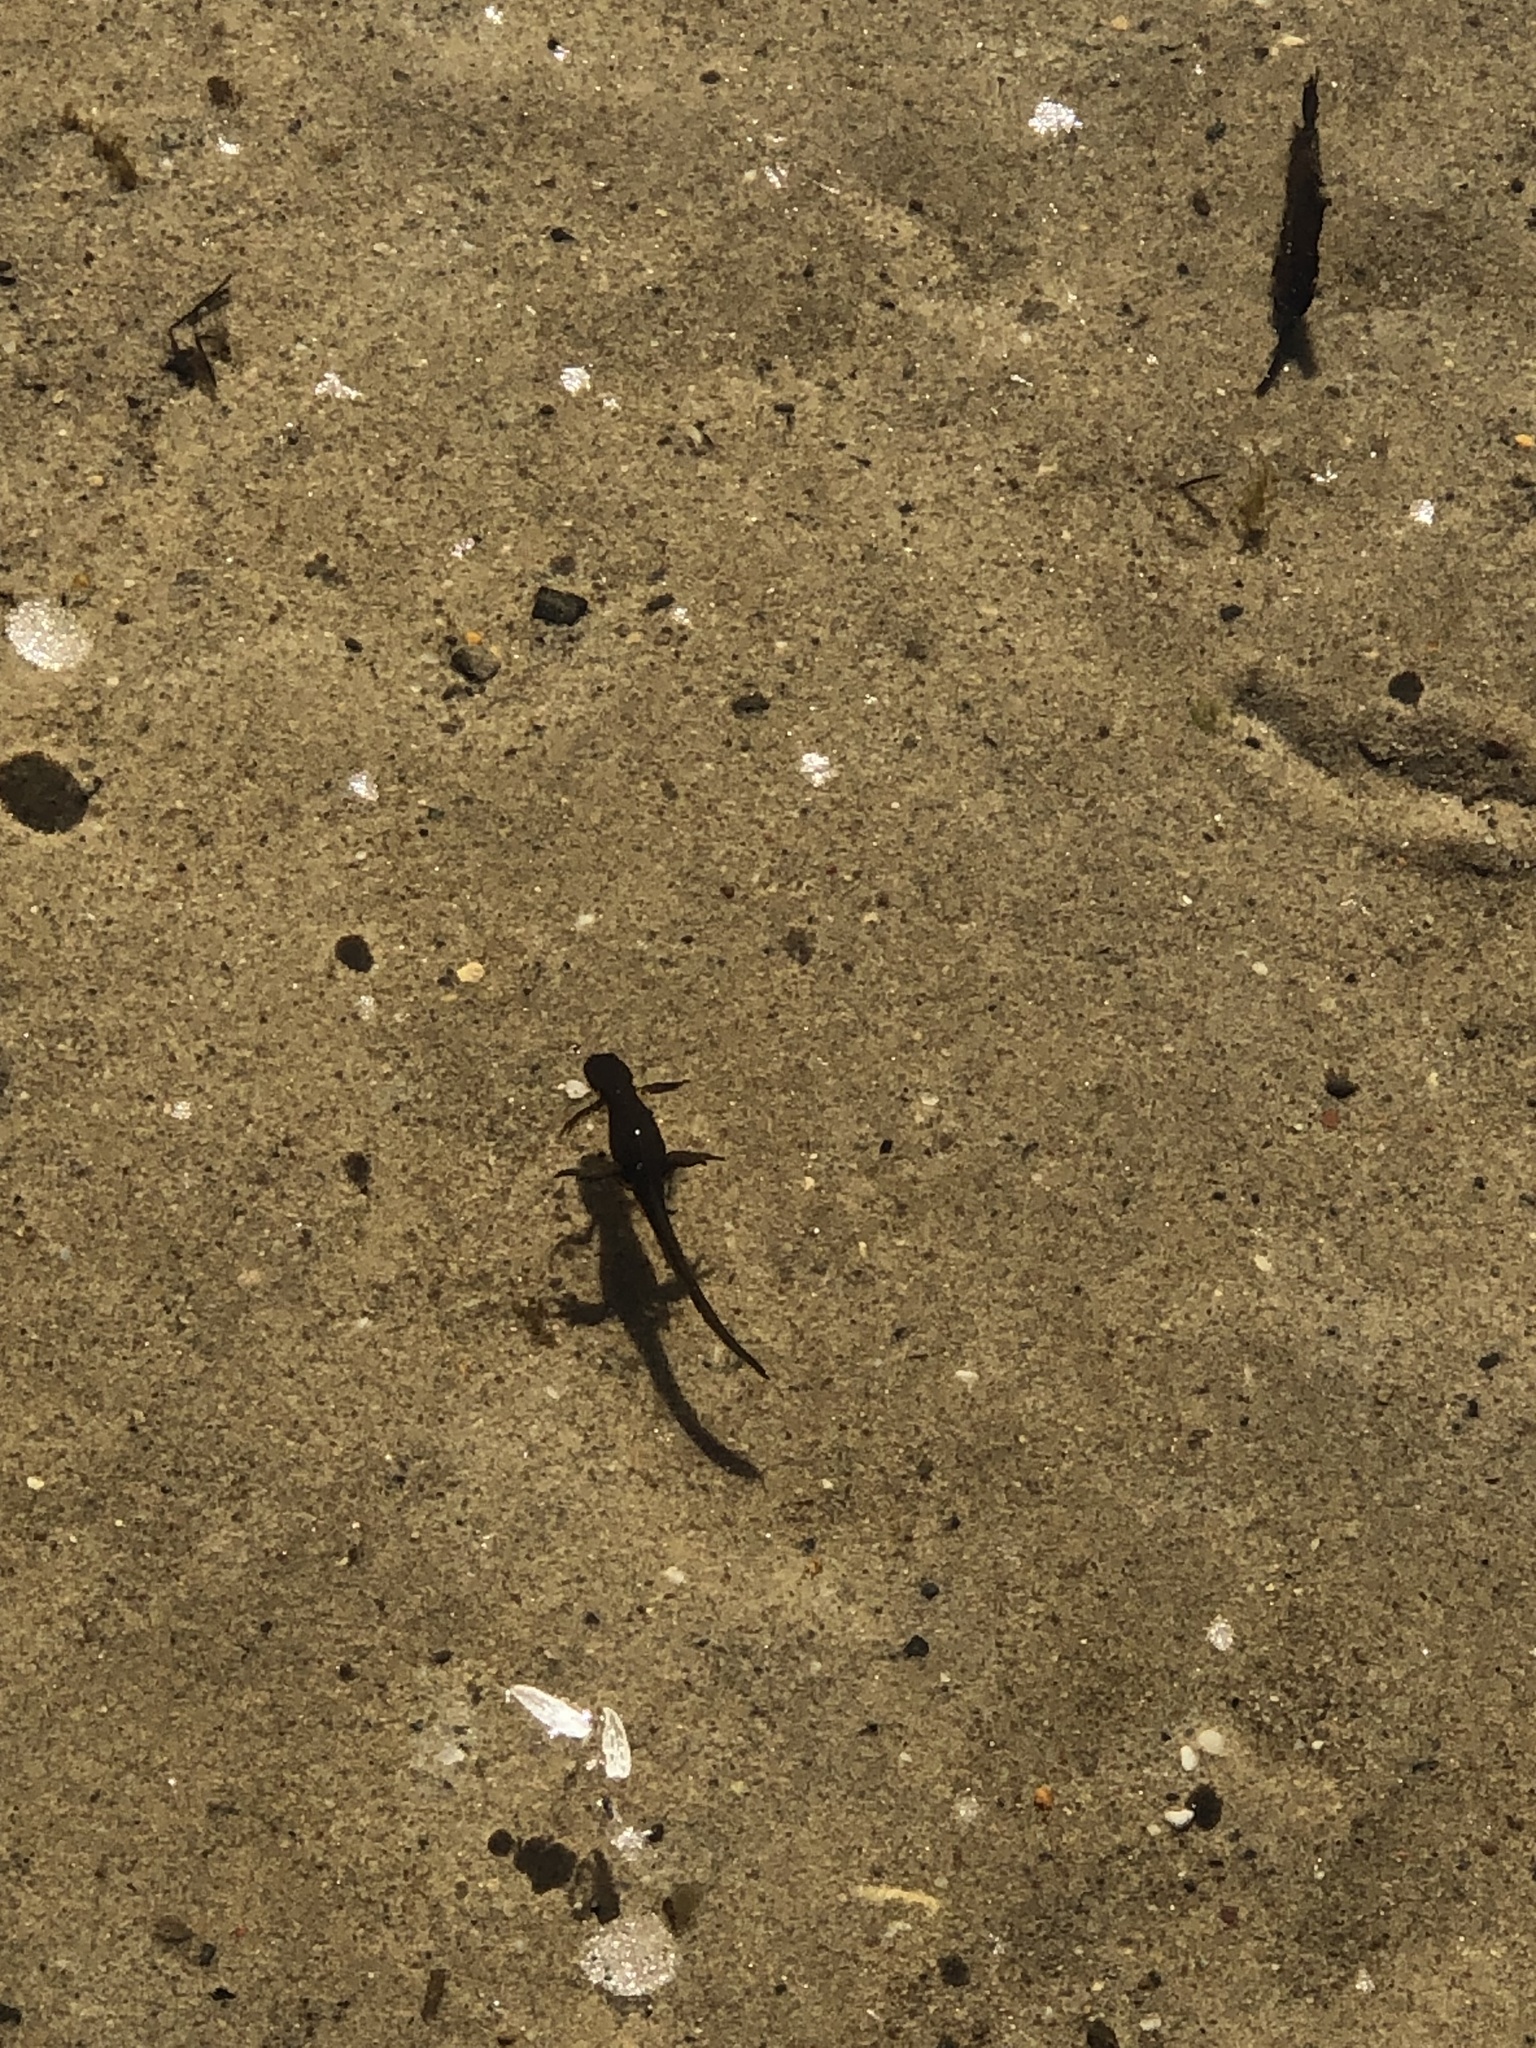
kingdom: Animalia
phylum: Chordata
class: Amphibia
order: Caudata
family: Salamandridae
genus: Notophthalmus
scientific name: Notophthalmus viridescens
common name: Eastern newt
